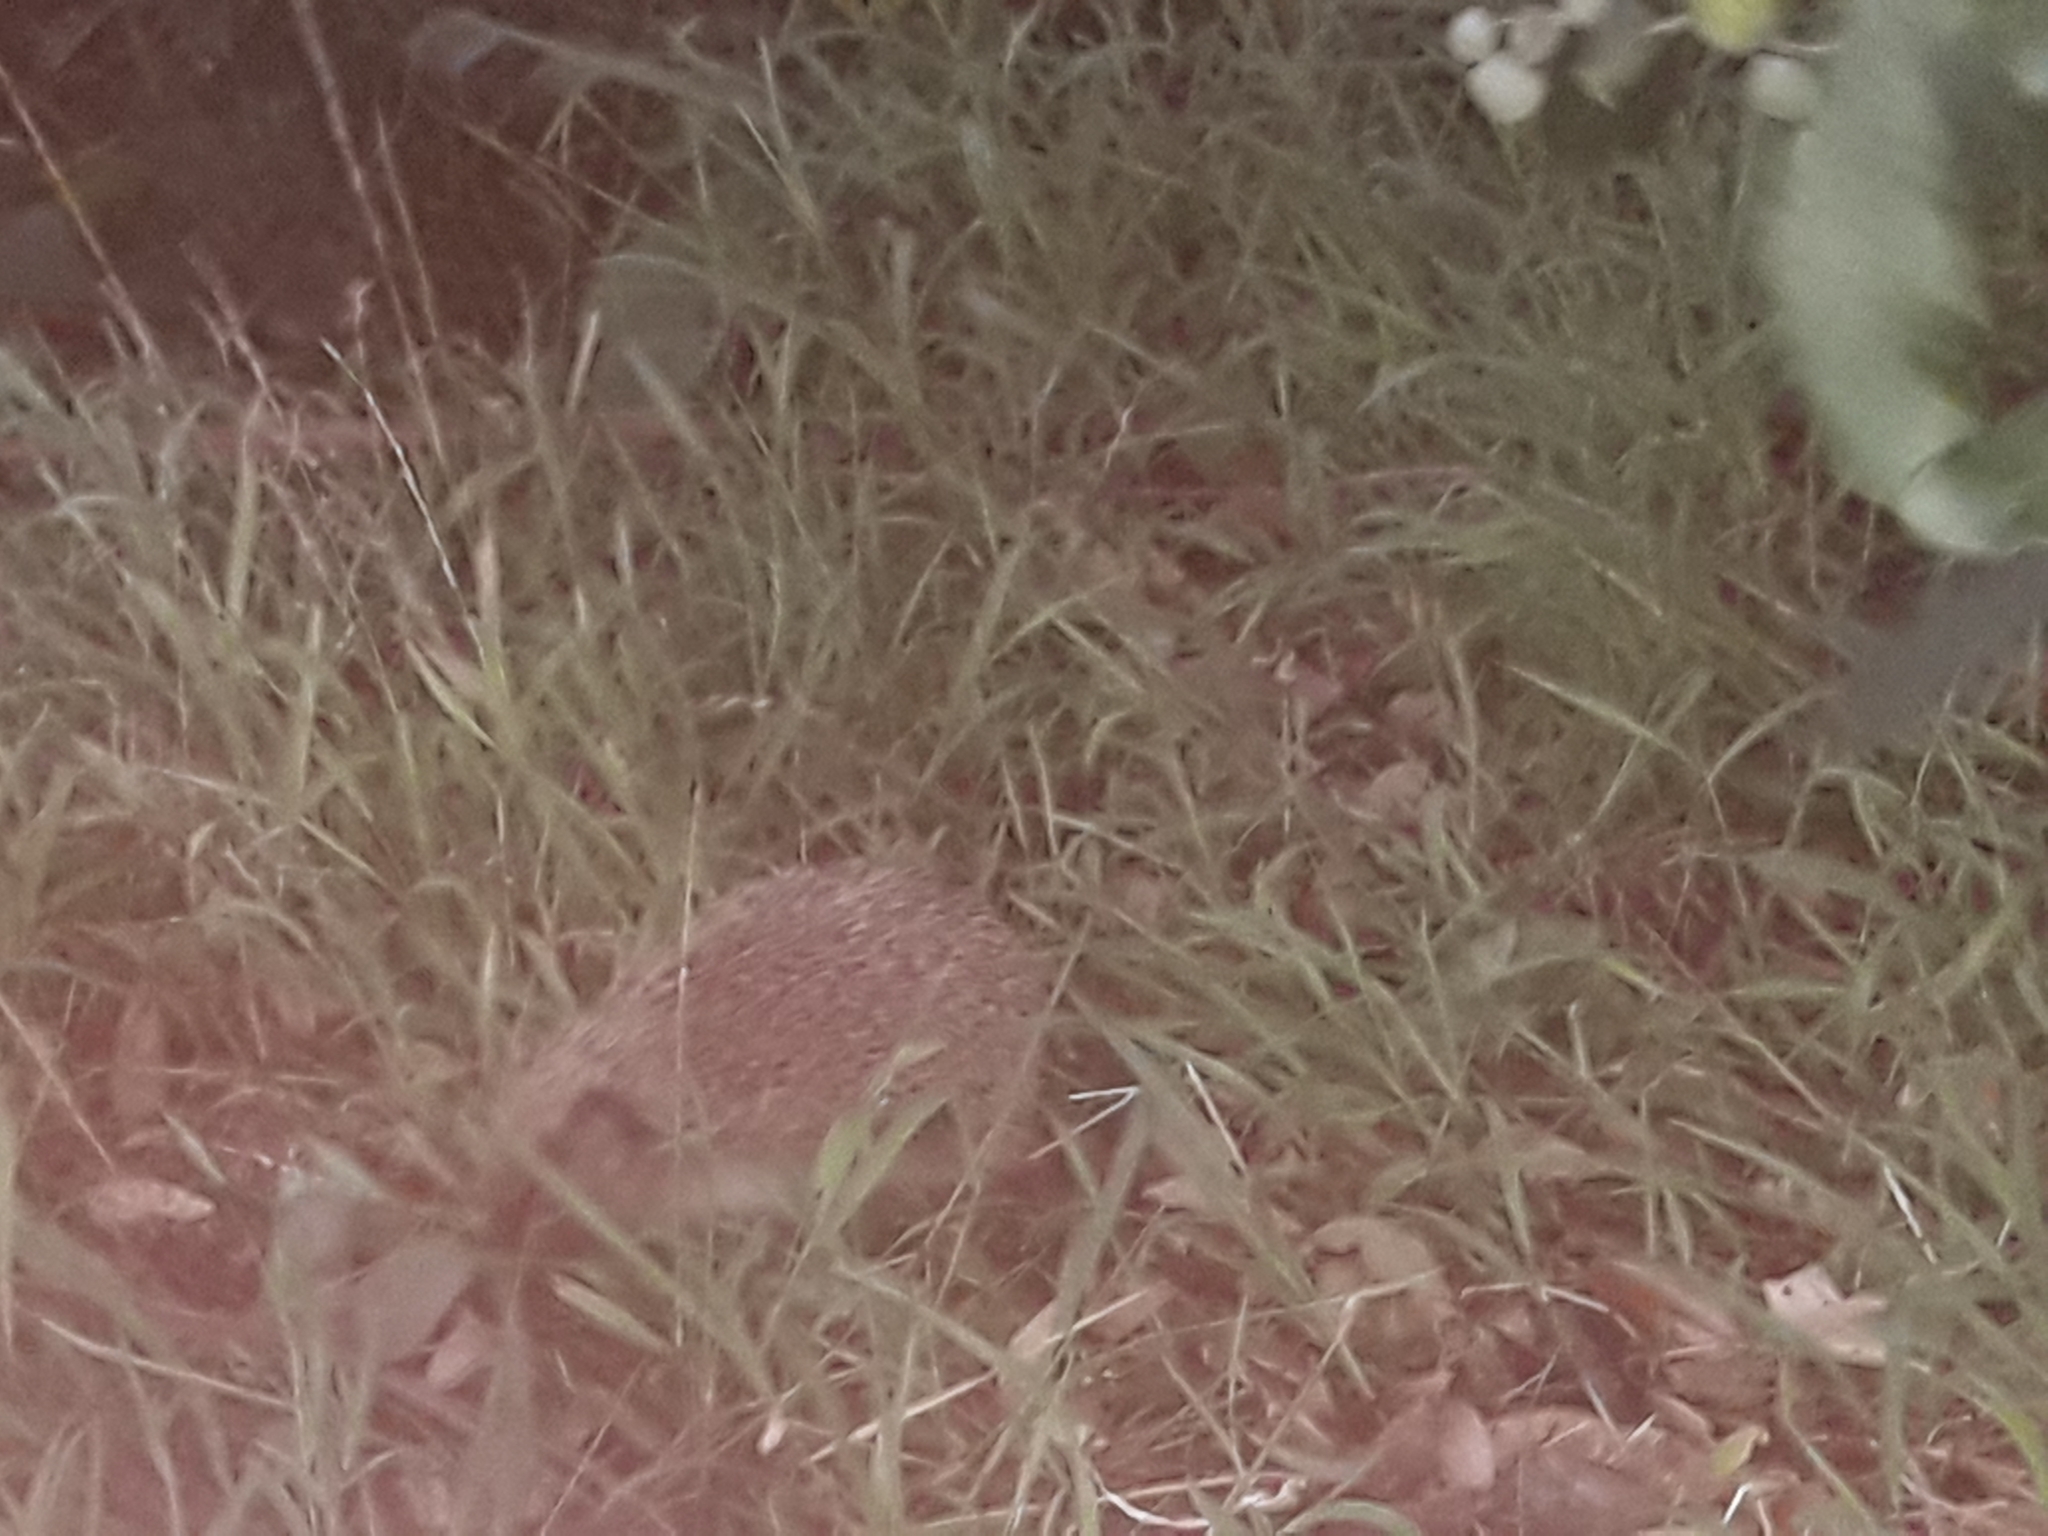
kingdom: Animalia
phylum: Chordata
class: Mammalia
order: Erinaceomorpha
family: Erinaceidae
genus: Erinaceus
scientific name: Erinaceus europaeus
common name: West european hedgehog
